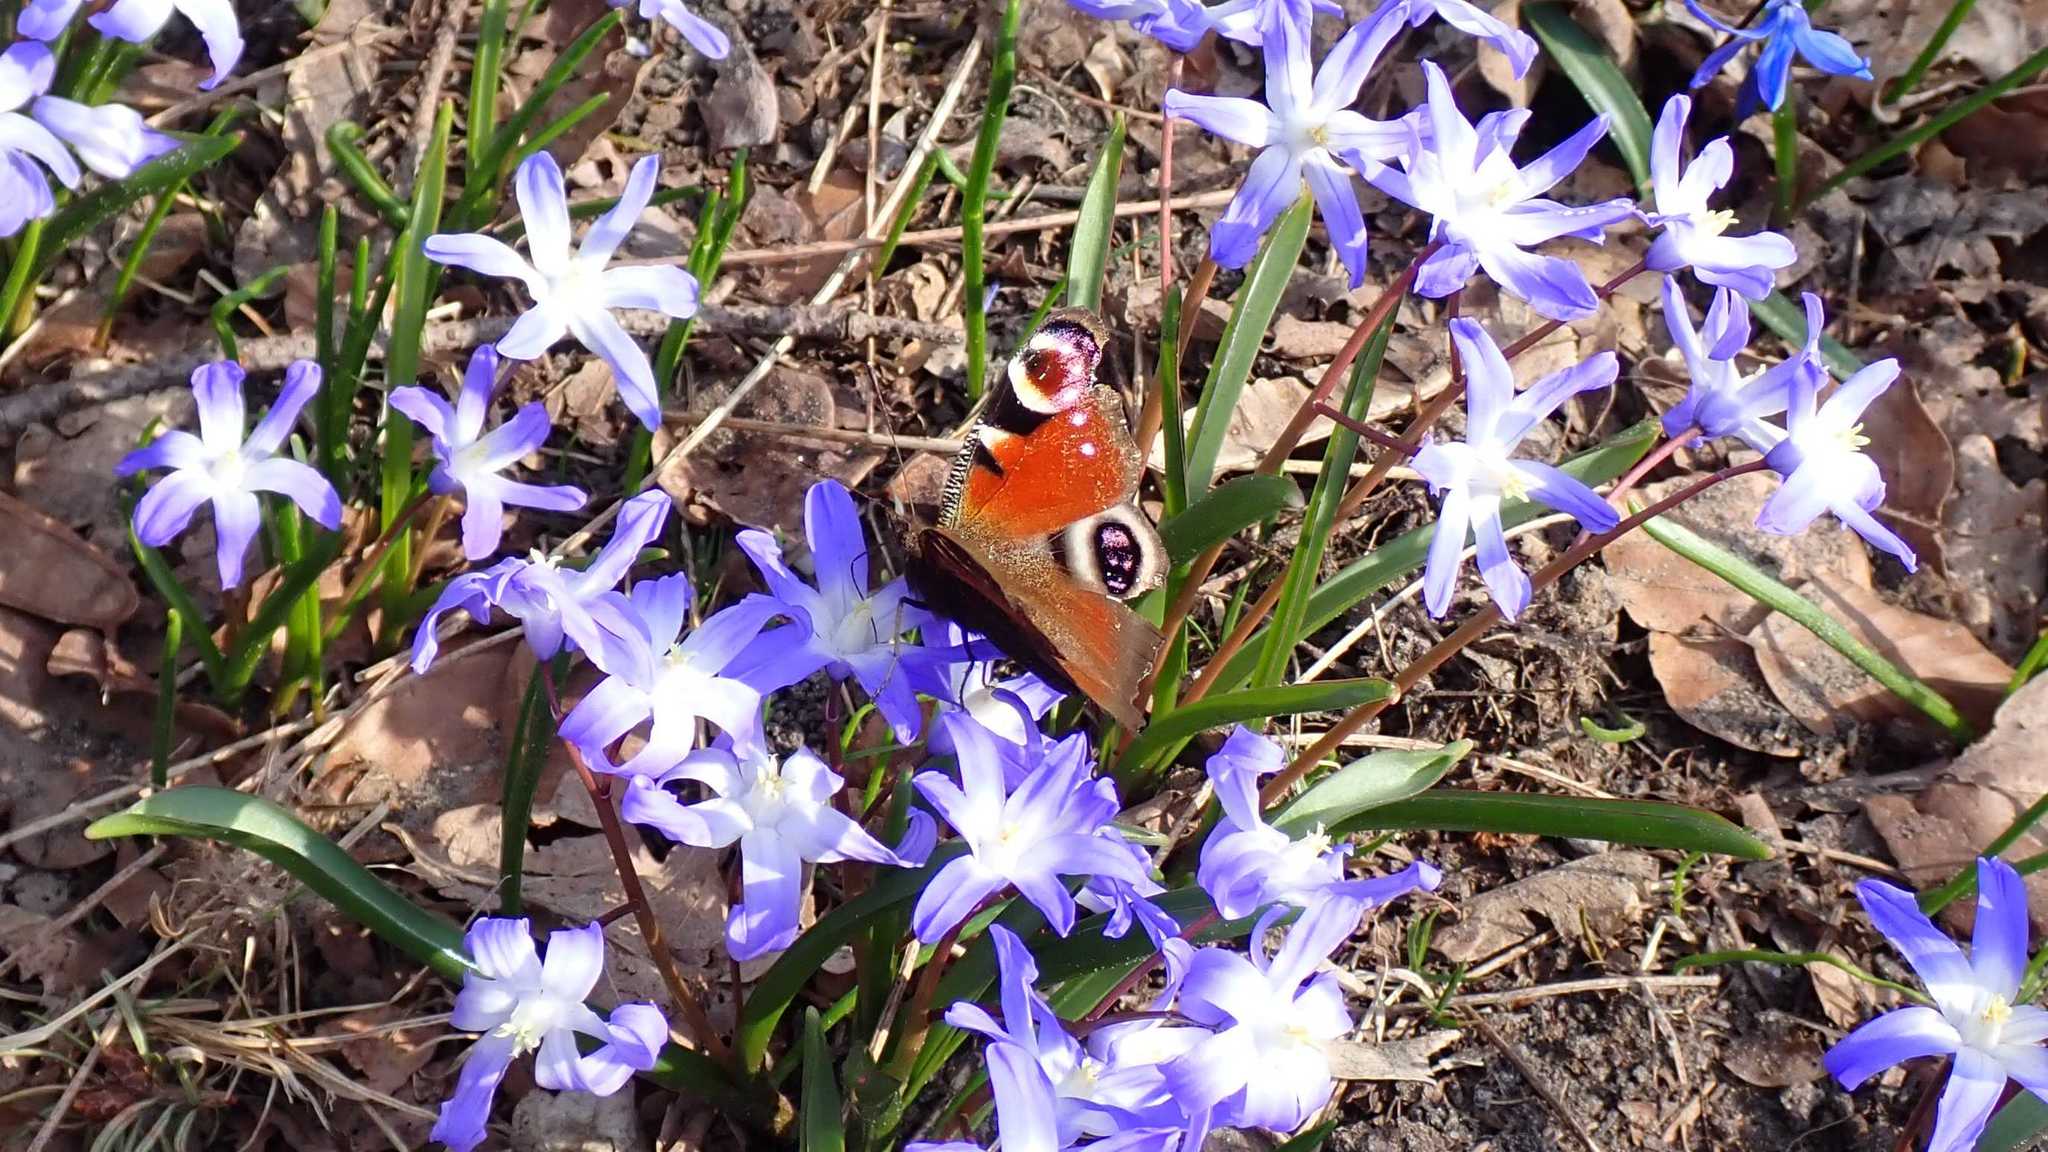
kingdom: Animalia
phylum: Arthropoda
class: Insecta
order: Lepidoptera
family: Nymphalidae
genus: Aglais
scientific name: Aglais io
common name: Peacock
